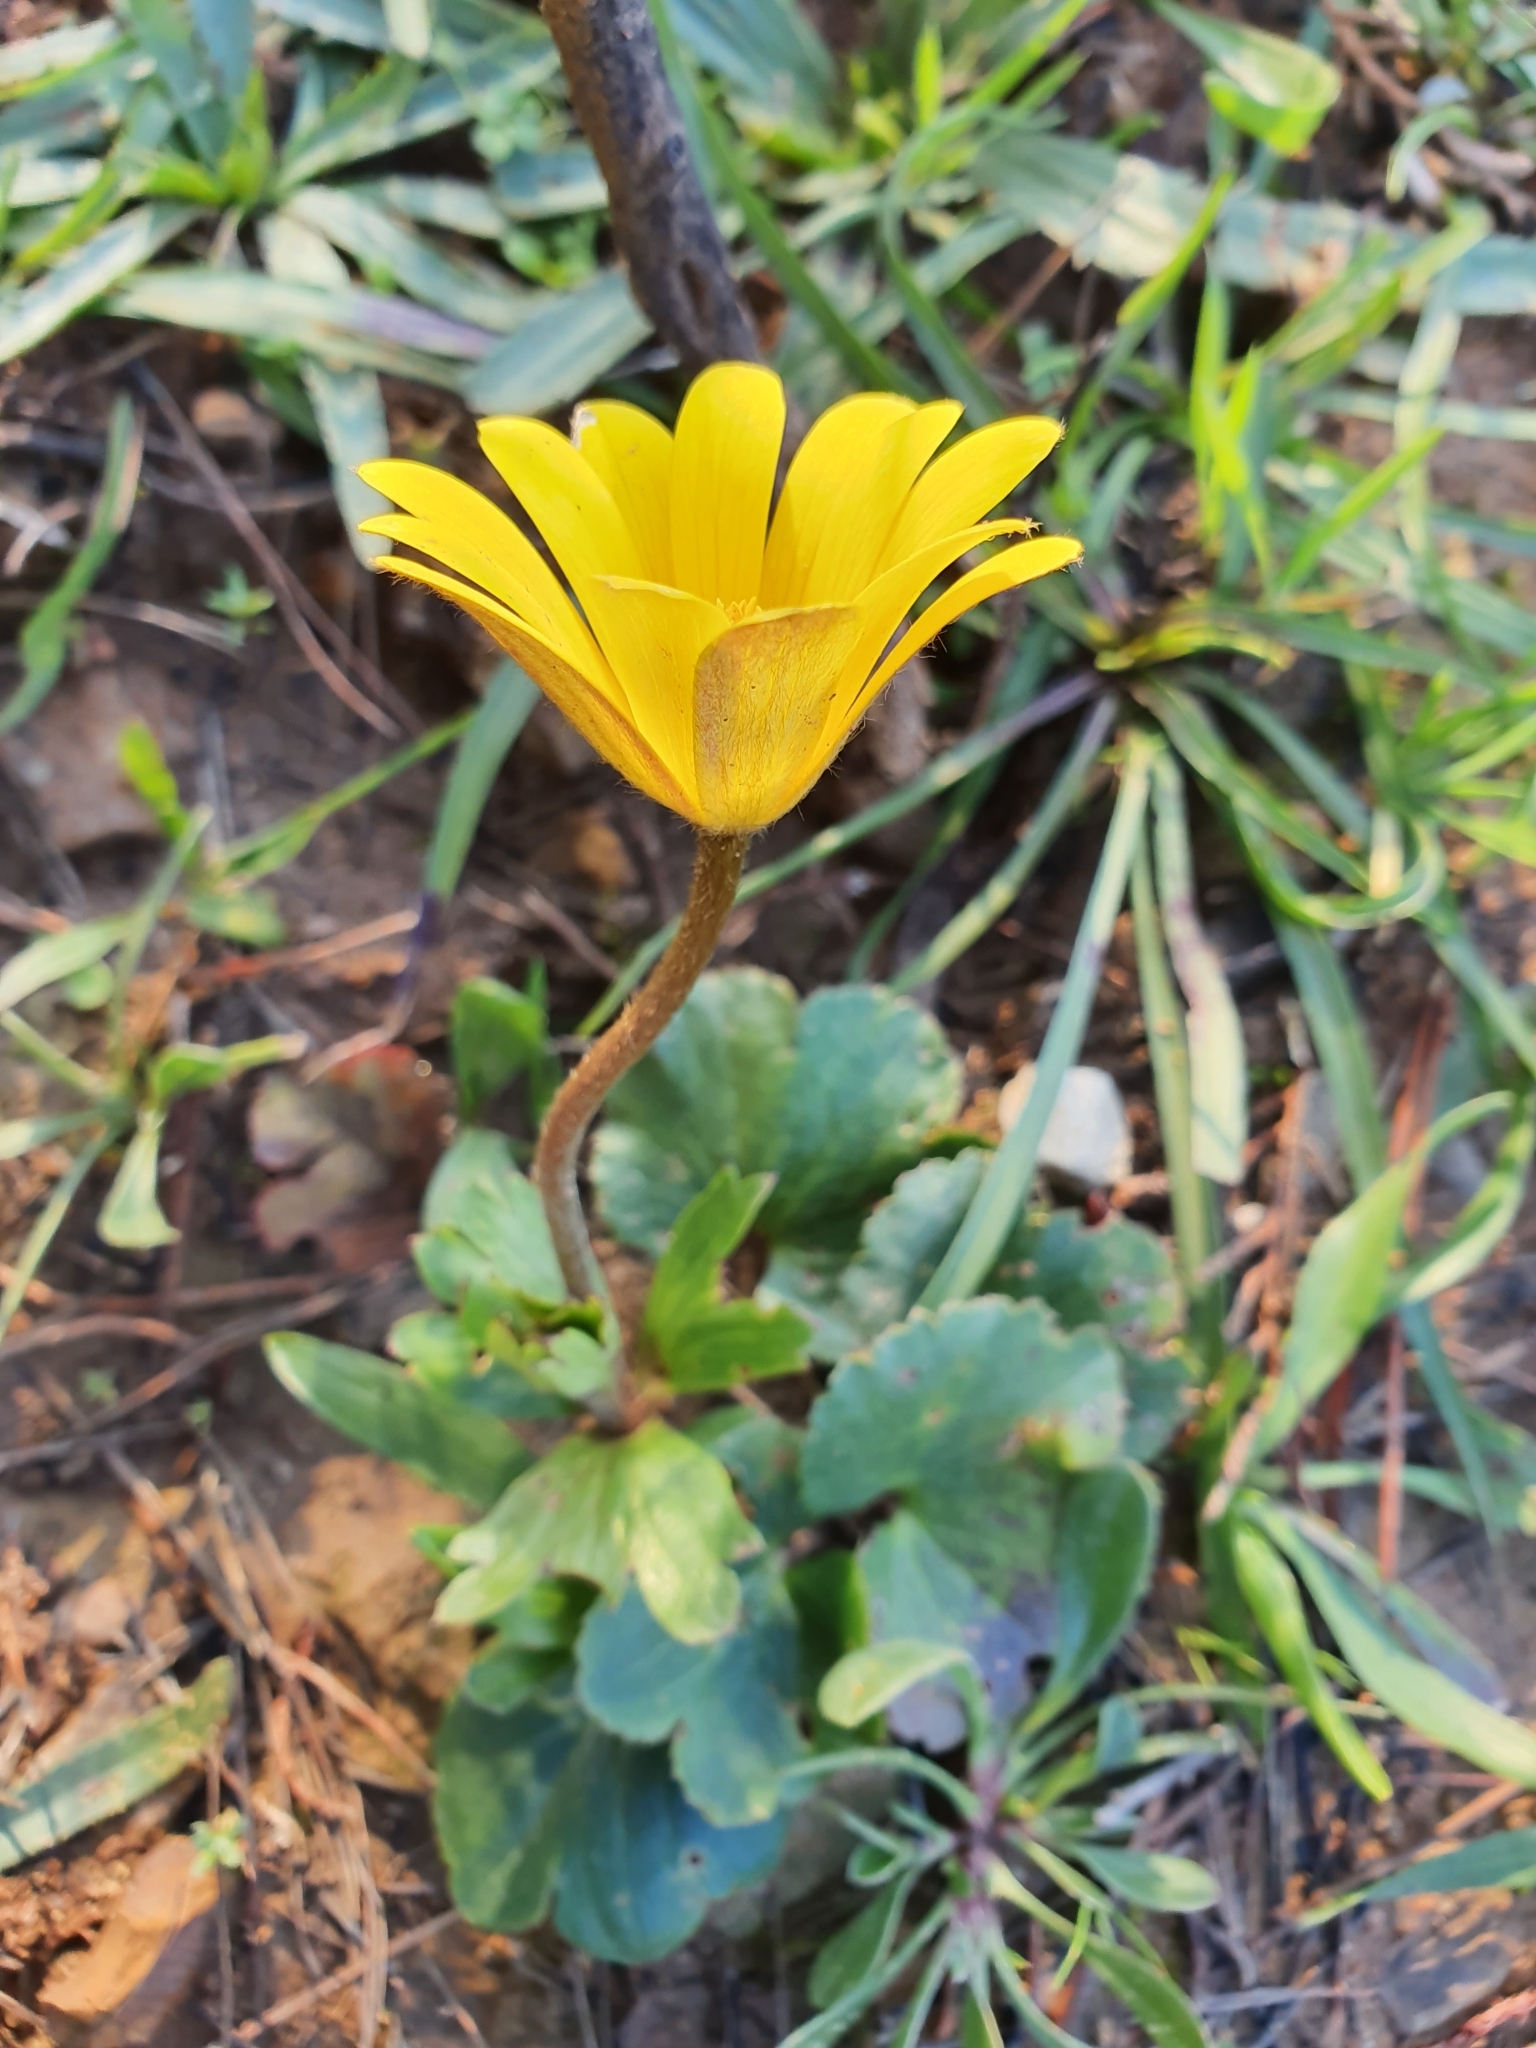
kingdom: Plantae
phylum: Tracheophyta
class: Magnoliopsida
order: Ranunculales
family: Ranunculaceae
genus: Anemone
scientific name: Anemone palmata
